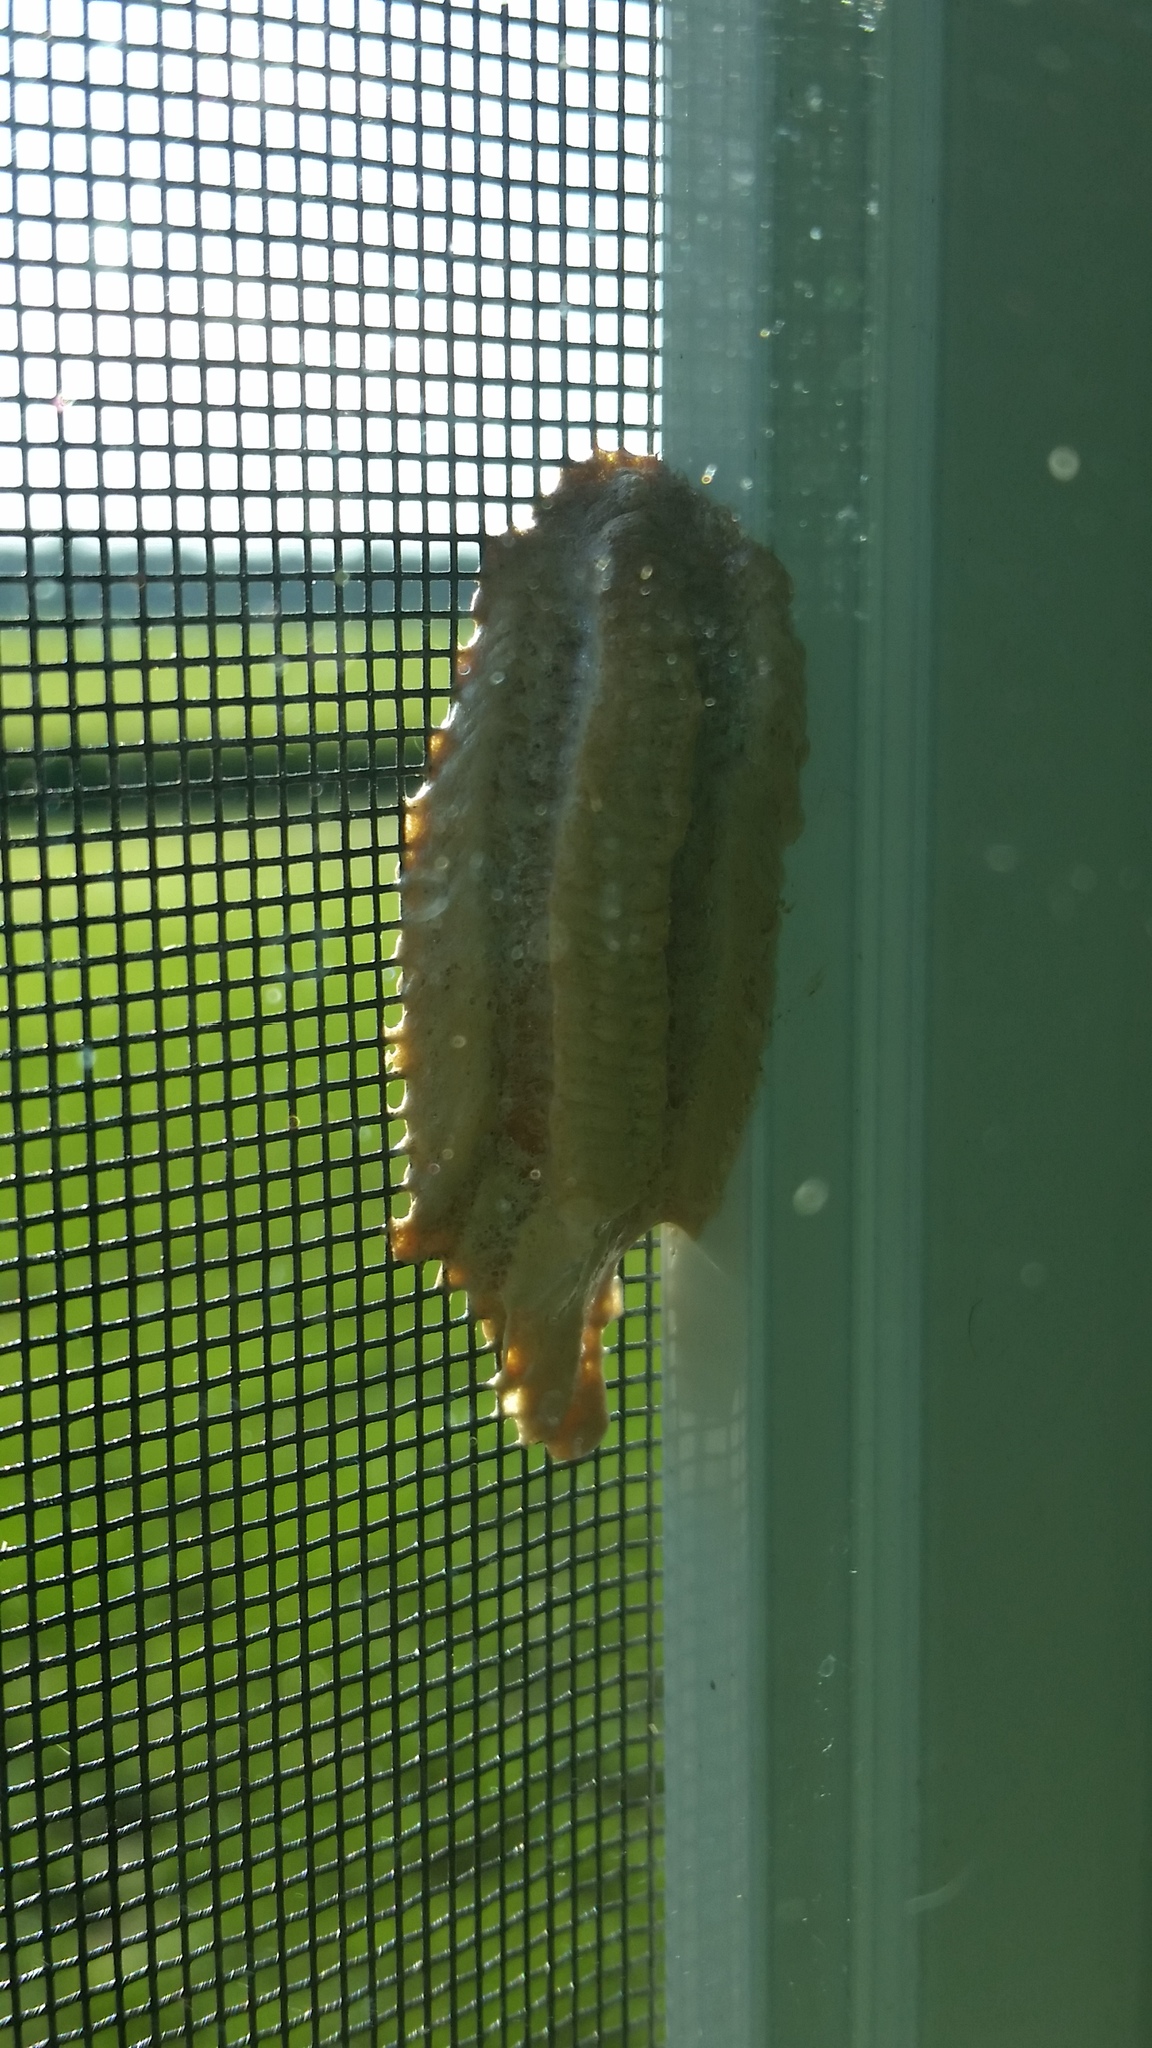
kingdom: Animalia
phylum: Arthropoda
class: Insecta
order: Mantodea
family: Mantidae
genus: Tenodera
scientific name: Tenodera angustipennis
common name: Asian mantis
